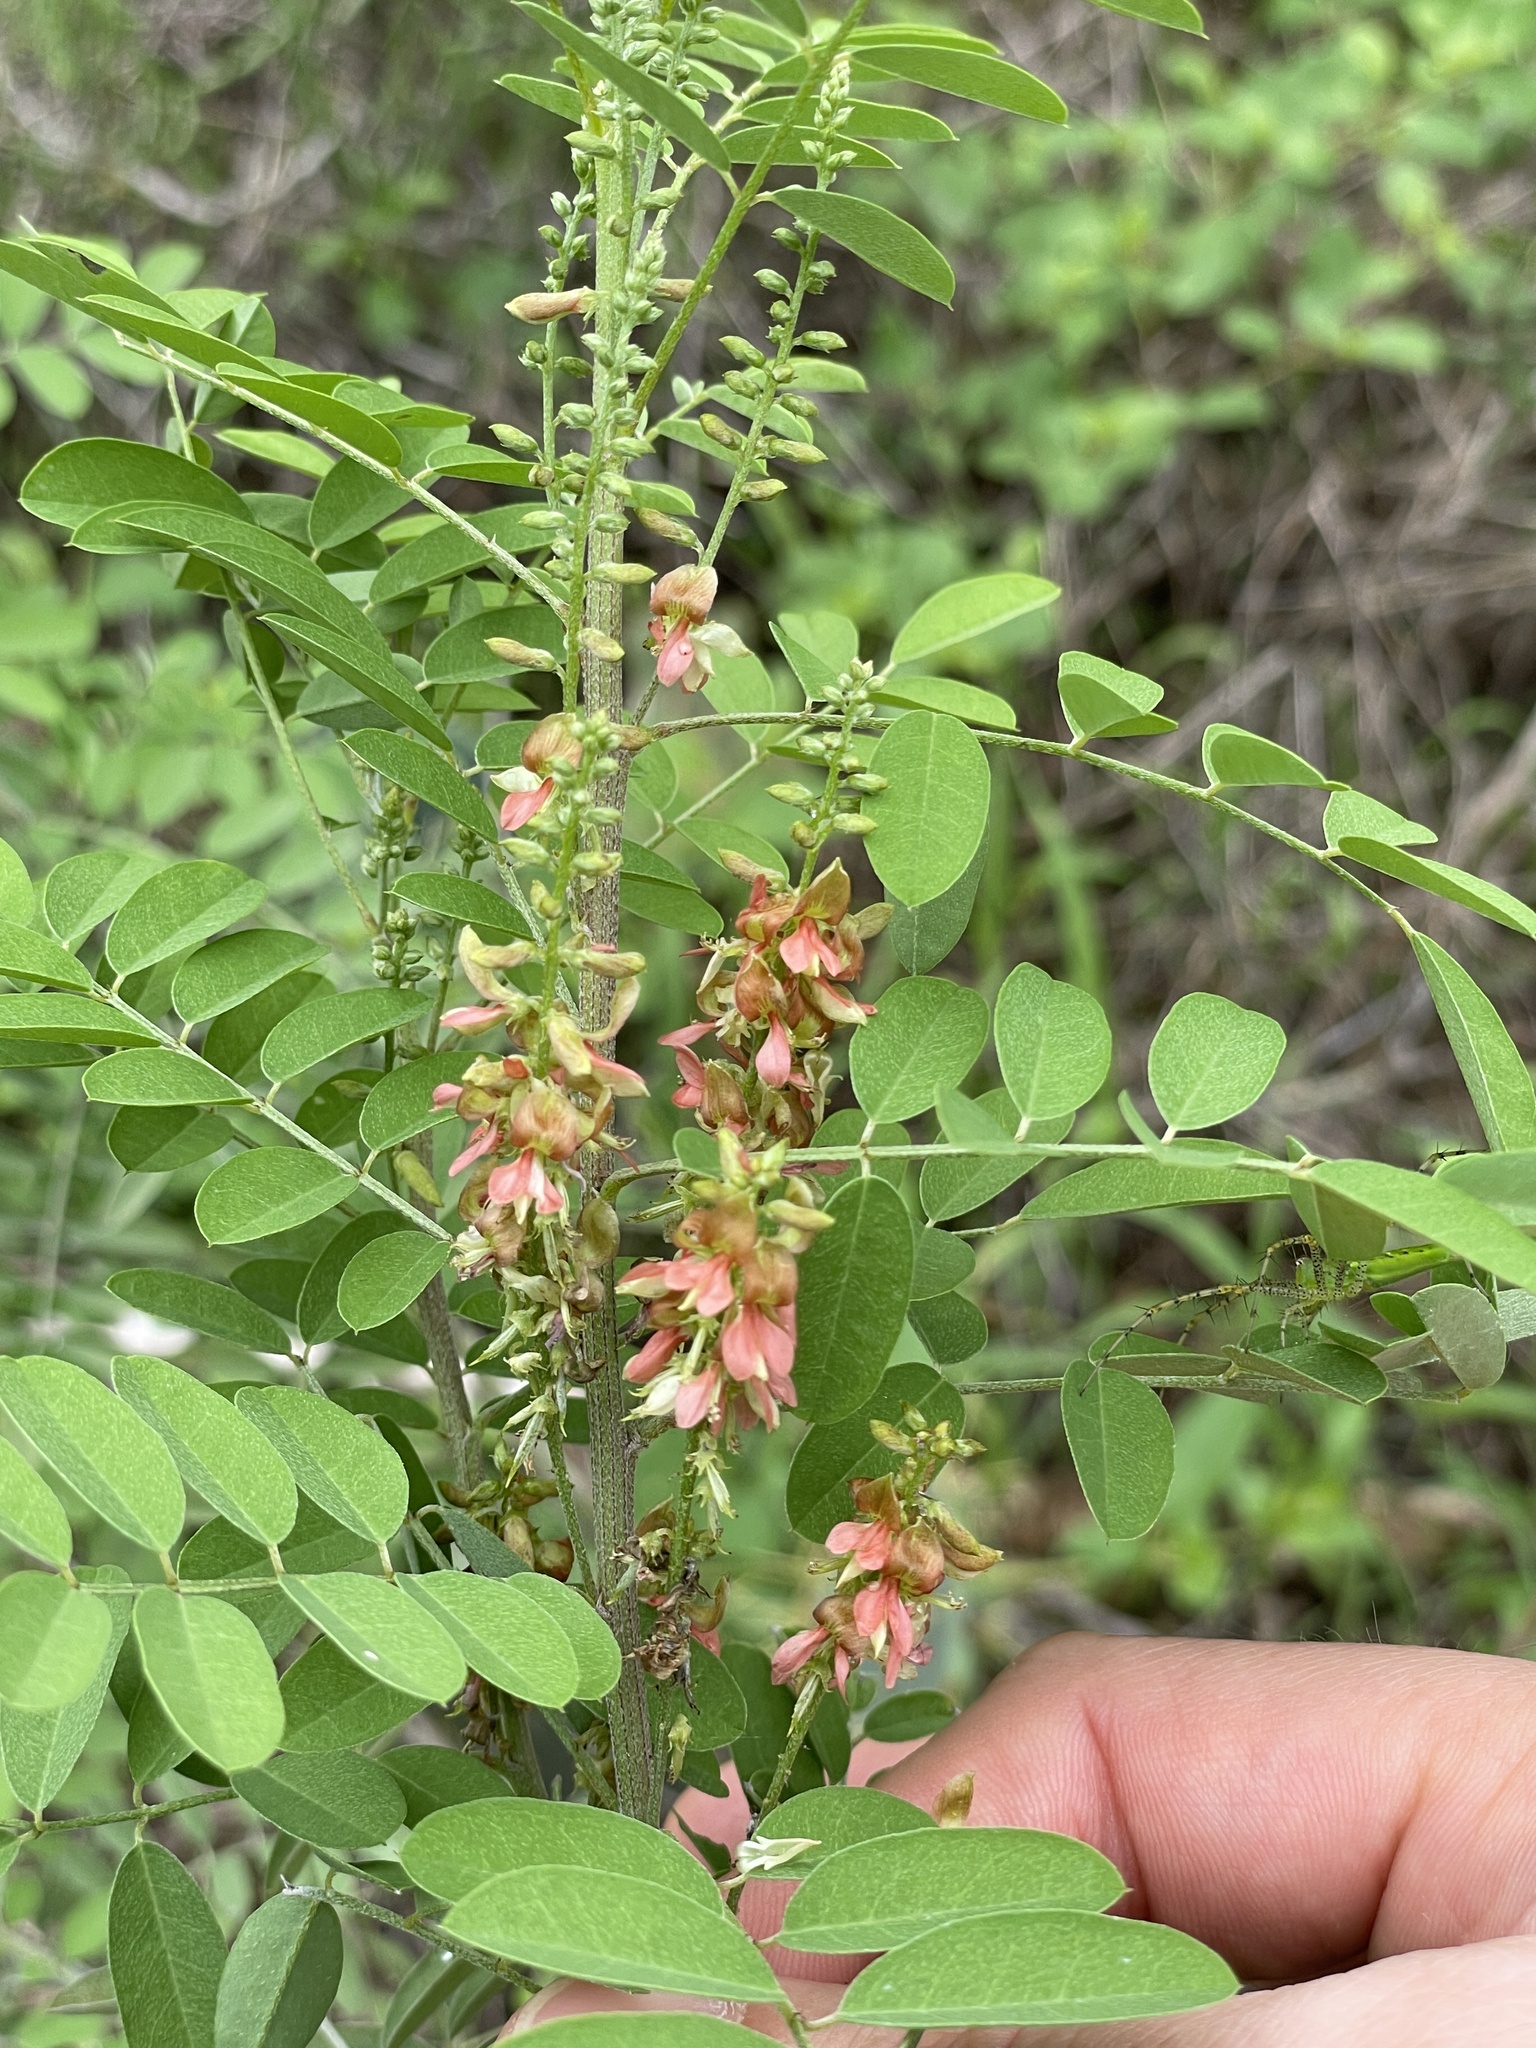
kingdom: Plantae
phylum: Tracheophyta
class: Magnoliopsida
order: Fabales
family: Fabaceae
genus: Indigofera
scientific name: Indigofera suffruticosa
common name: Anil de pasto
